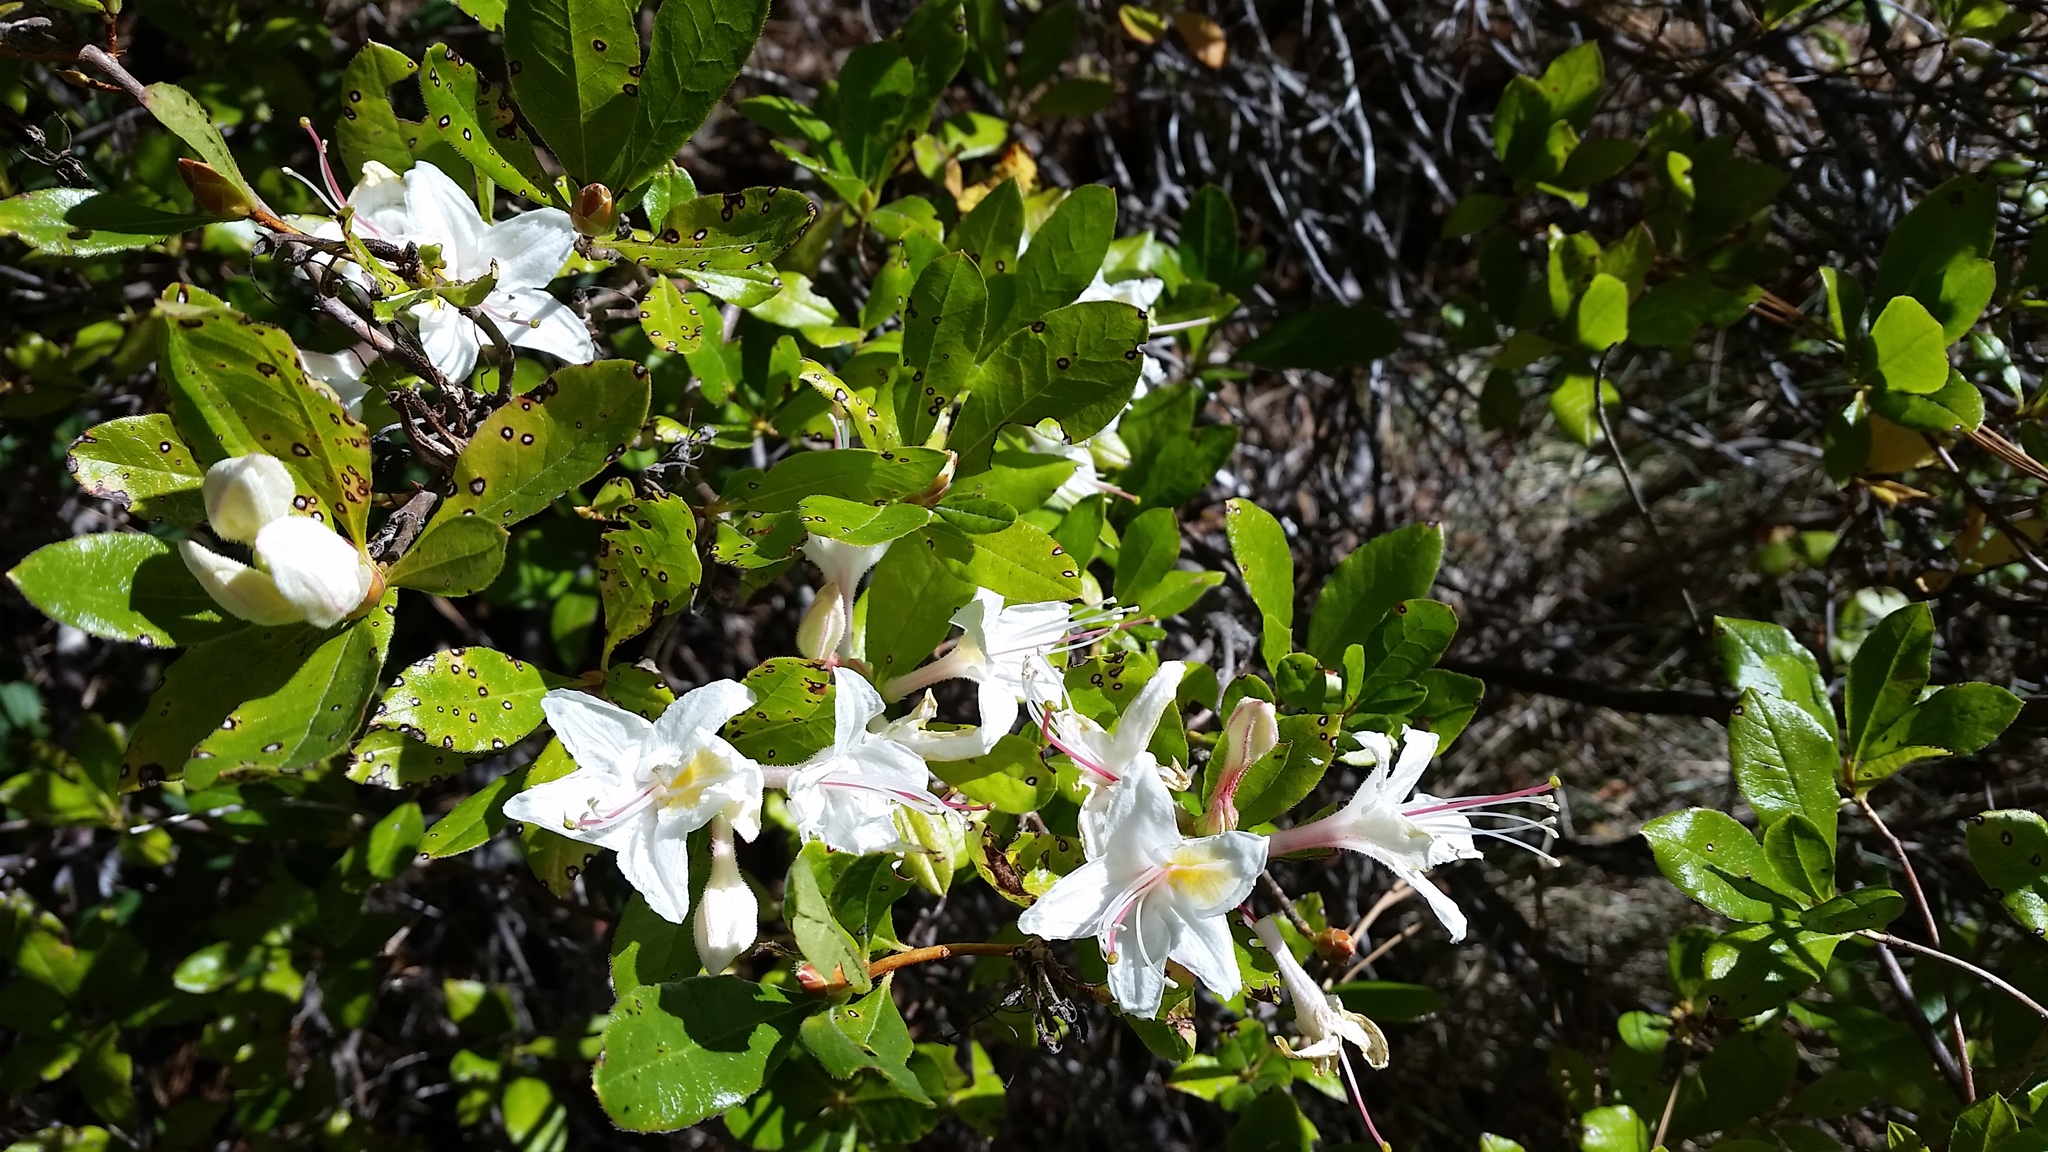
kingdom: Plantae
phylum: Tracheophyta
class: Magnoliopsida
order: Ericales
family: Ericaceae
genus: Rhododendron
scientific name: Rhododendron occidentale
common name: Western azalea
